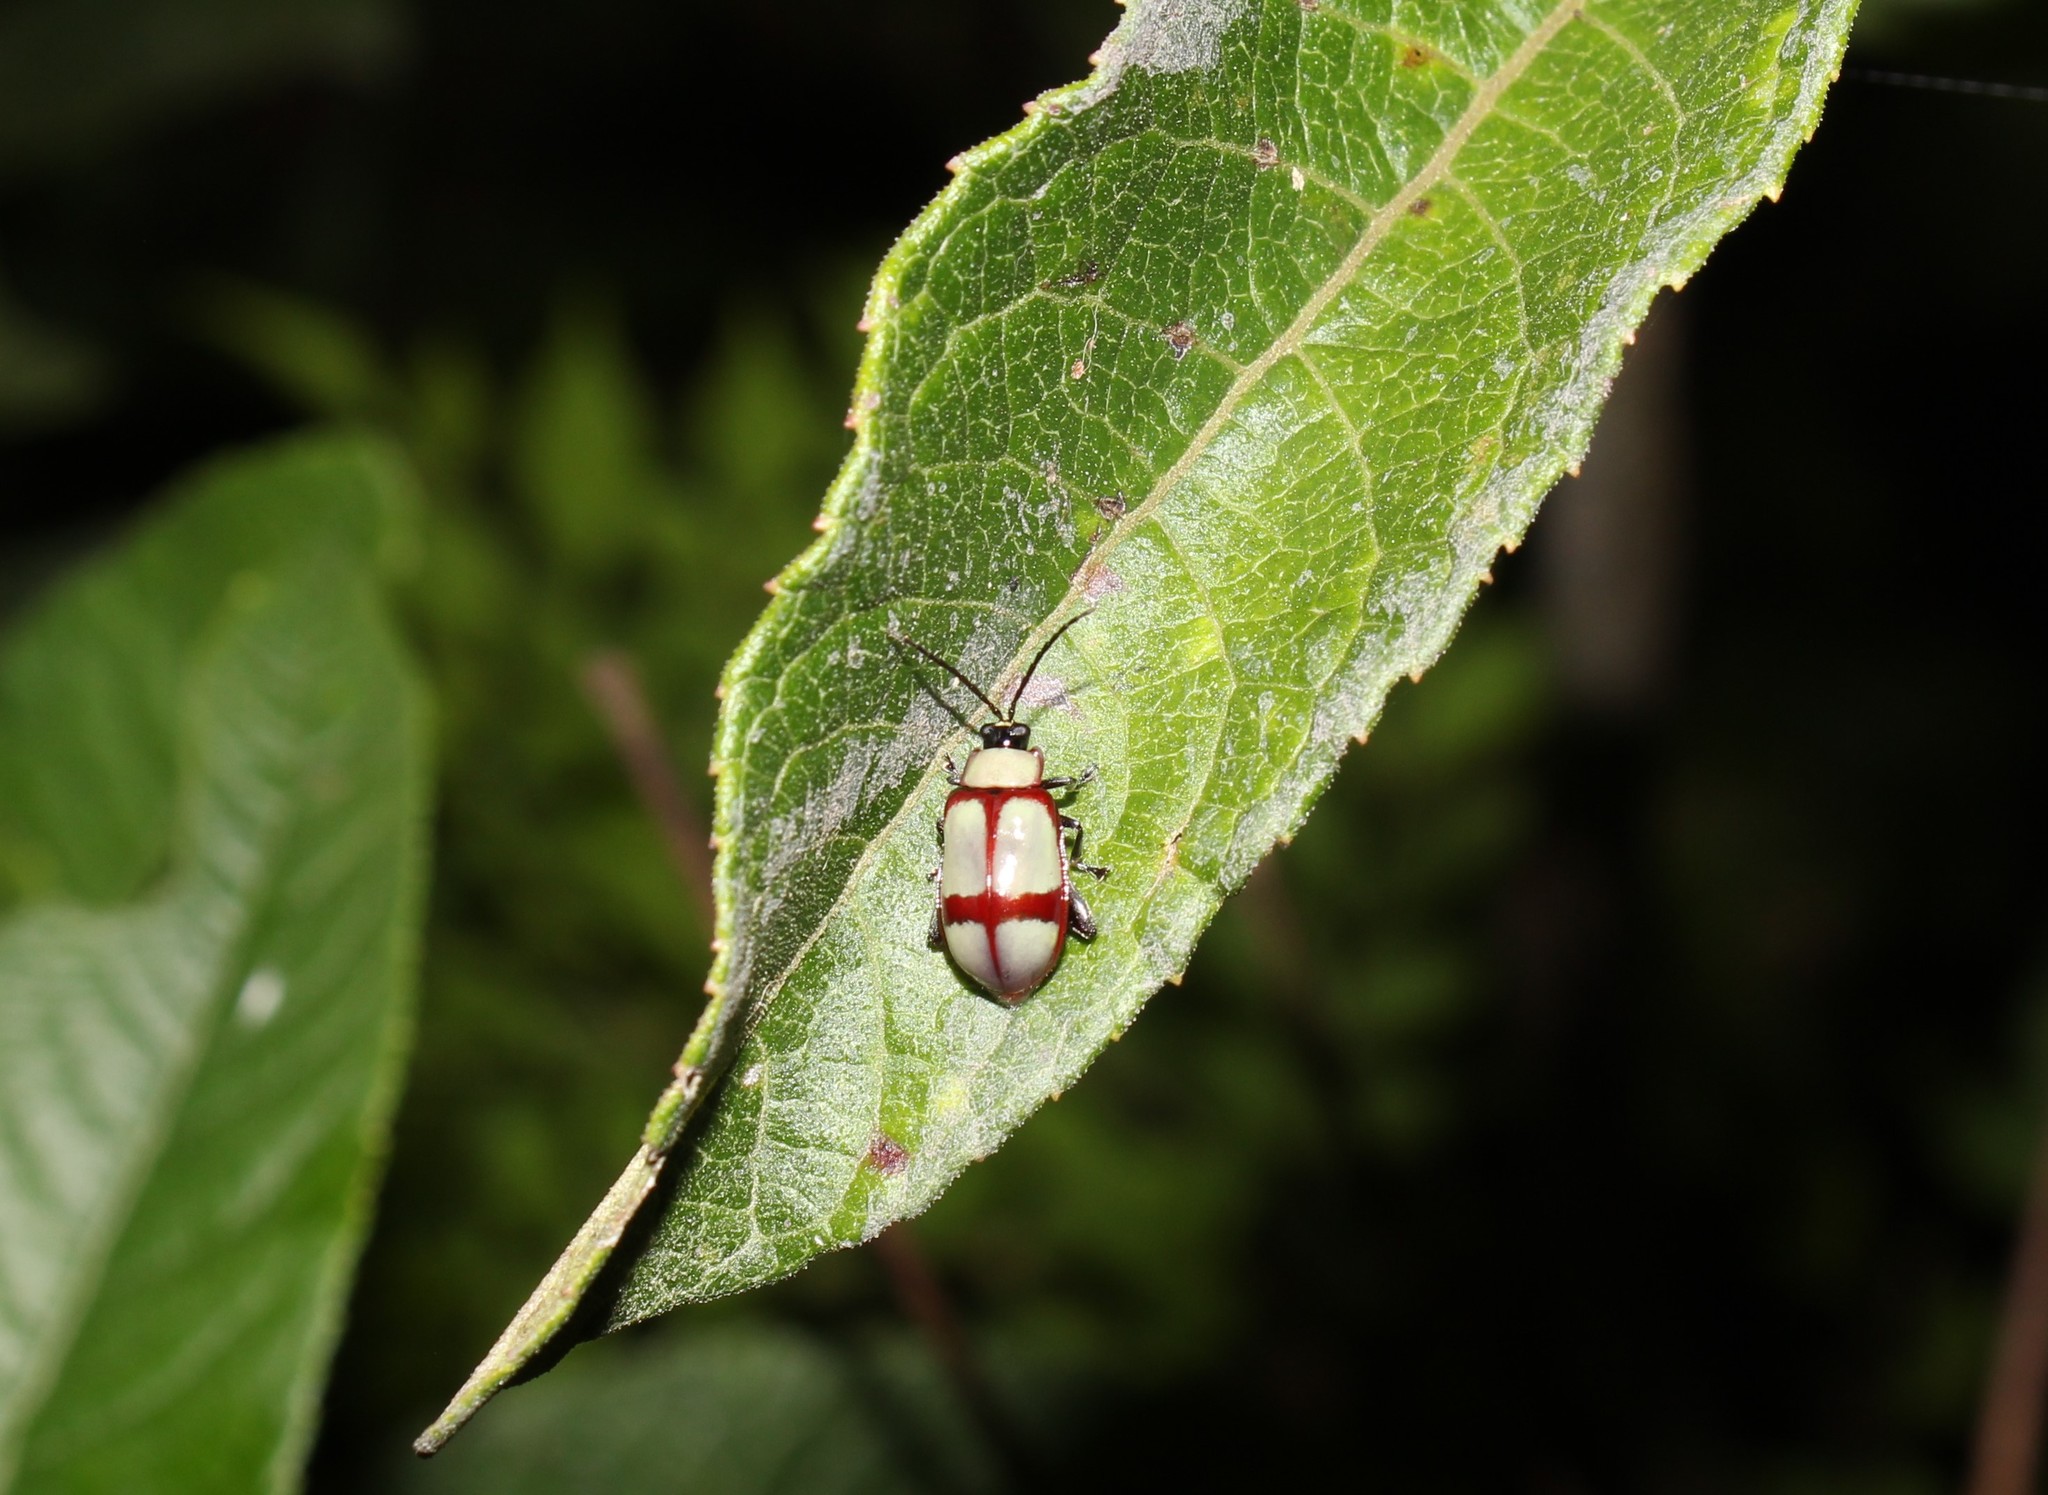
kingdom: Animalia
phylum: Arthropoda
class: Insecta
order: Coleoptera
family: Chrysomelidae
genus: Omophoita
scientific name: Omophoita
